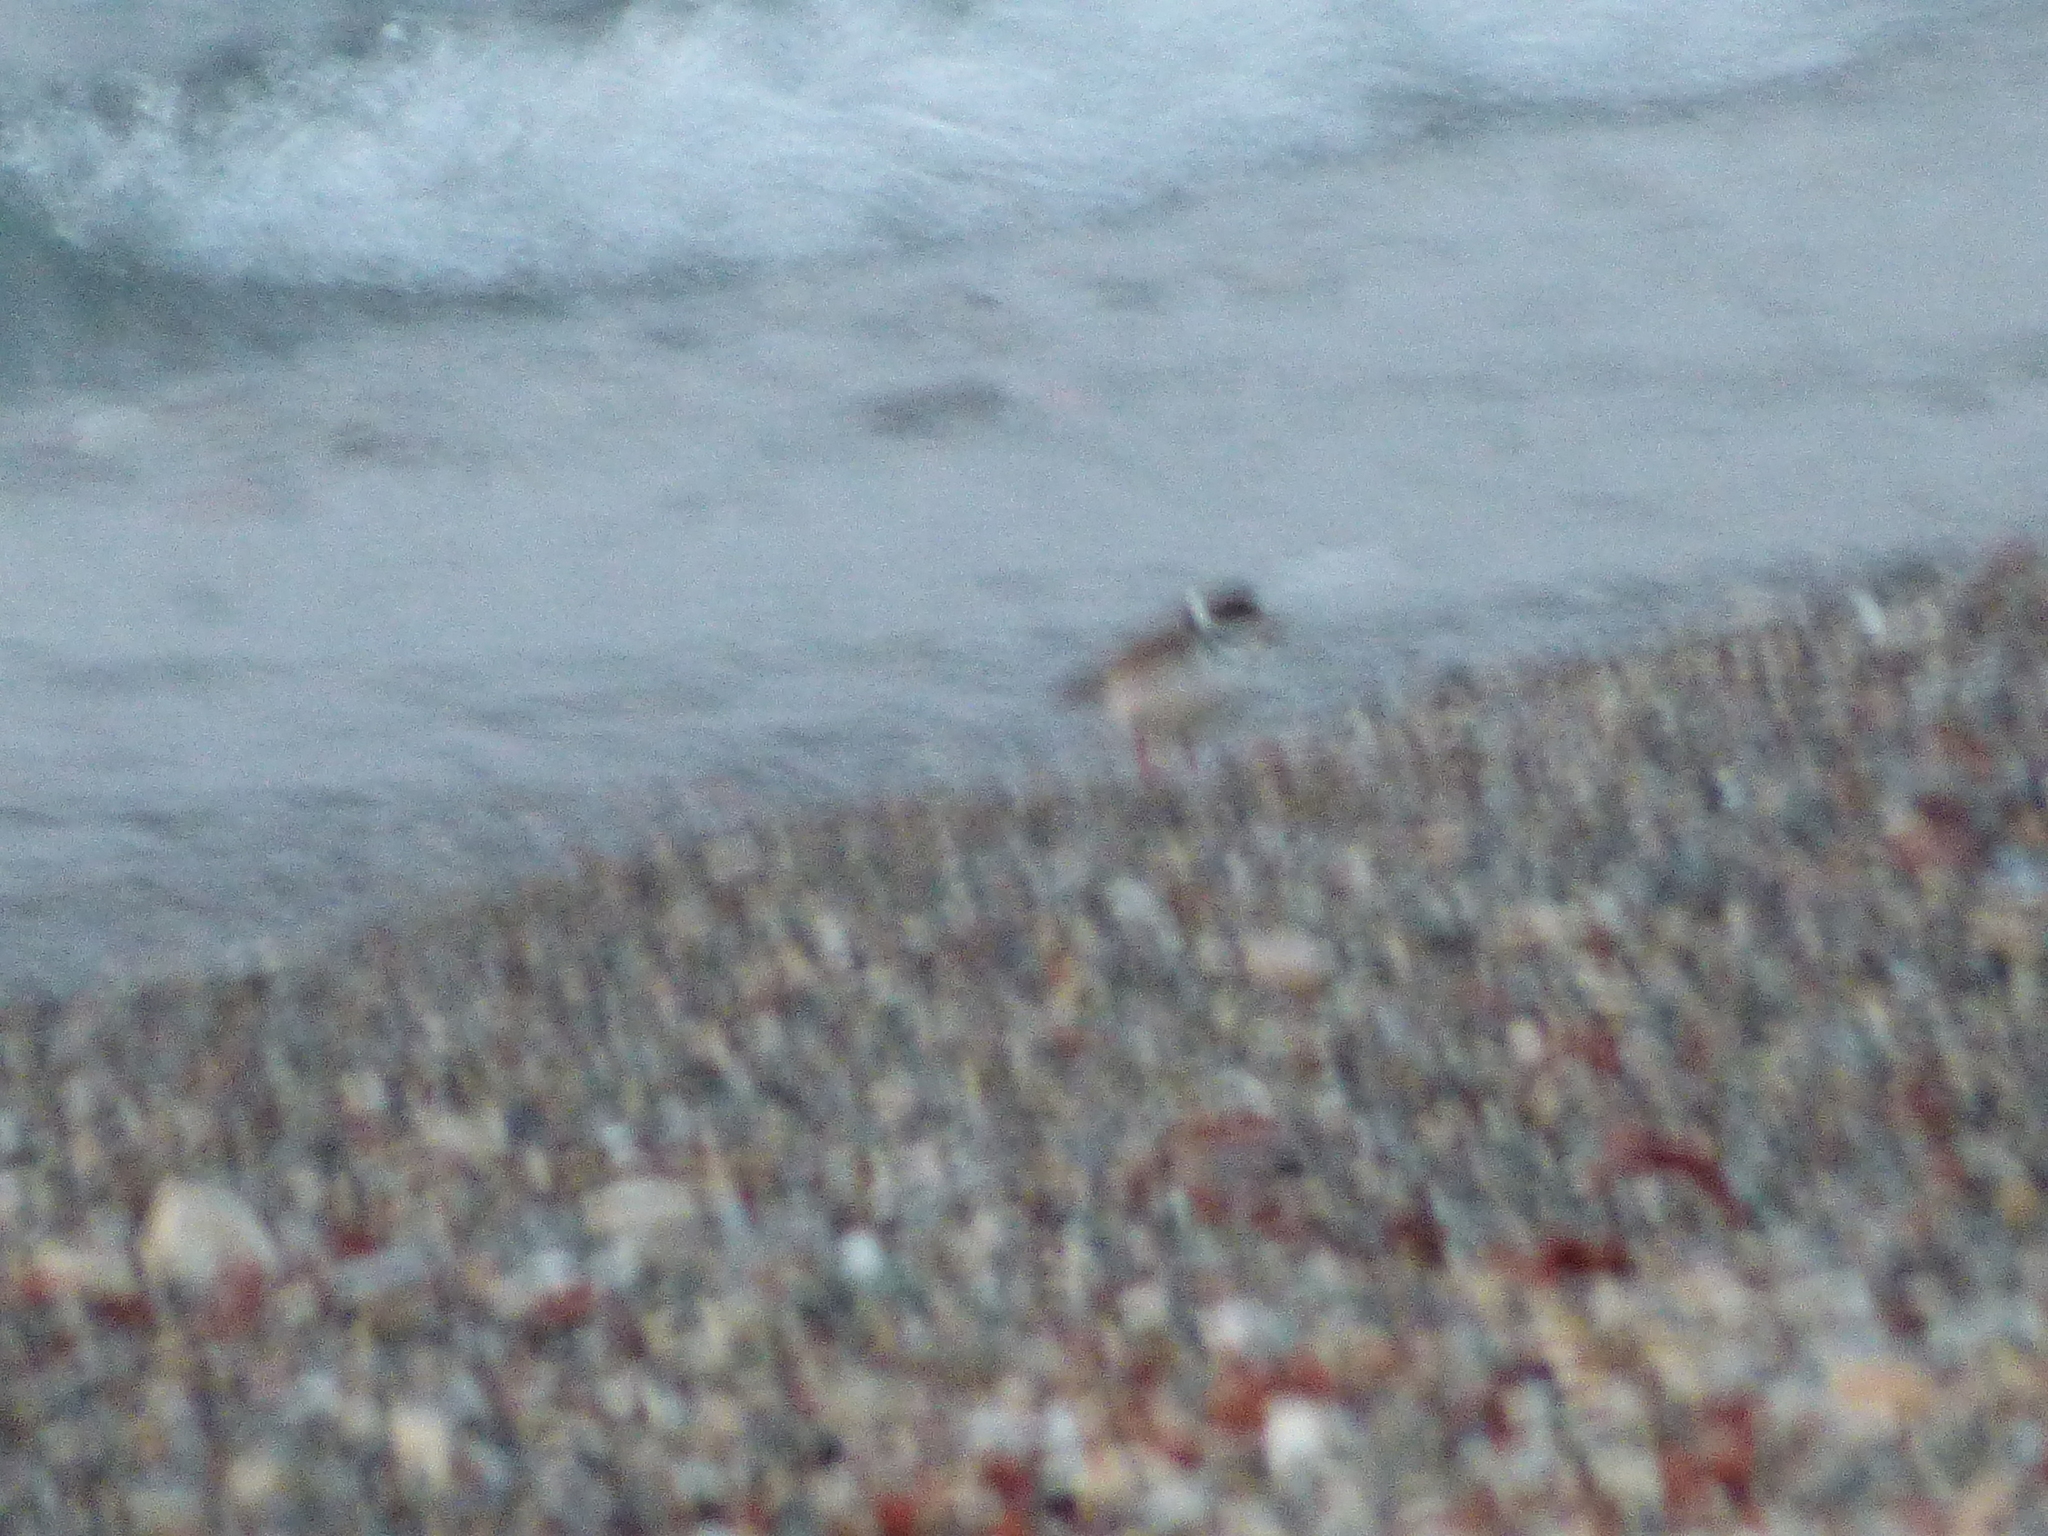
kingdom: Animalia
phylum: Chordata
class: Aves
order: Charadriiformes
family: Charadriidae
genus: Charadrius
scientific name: Charadrius semipalmatus
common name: Semipalmated plover
